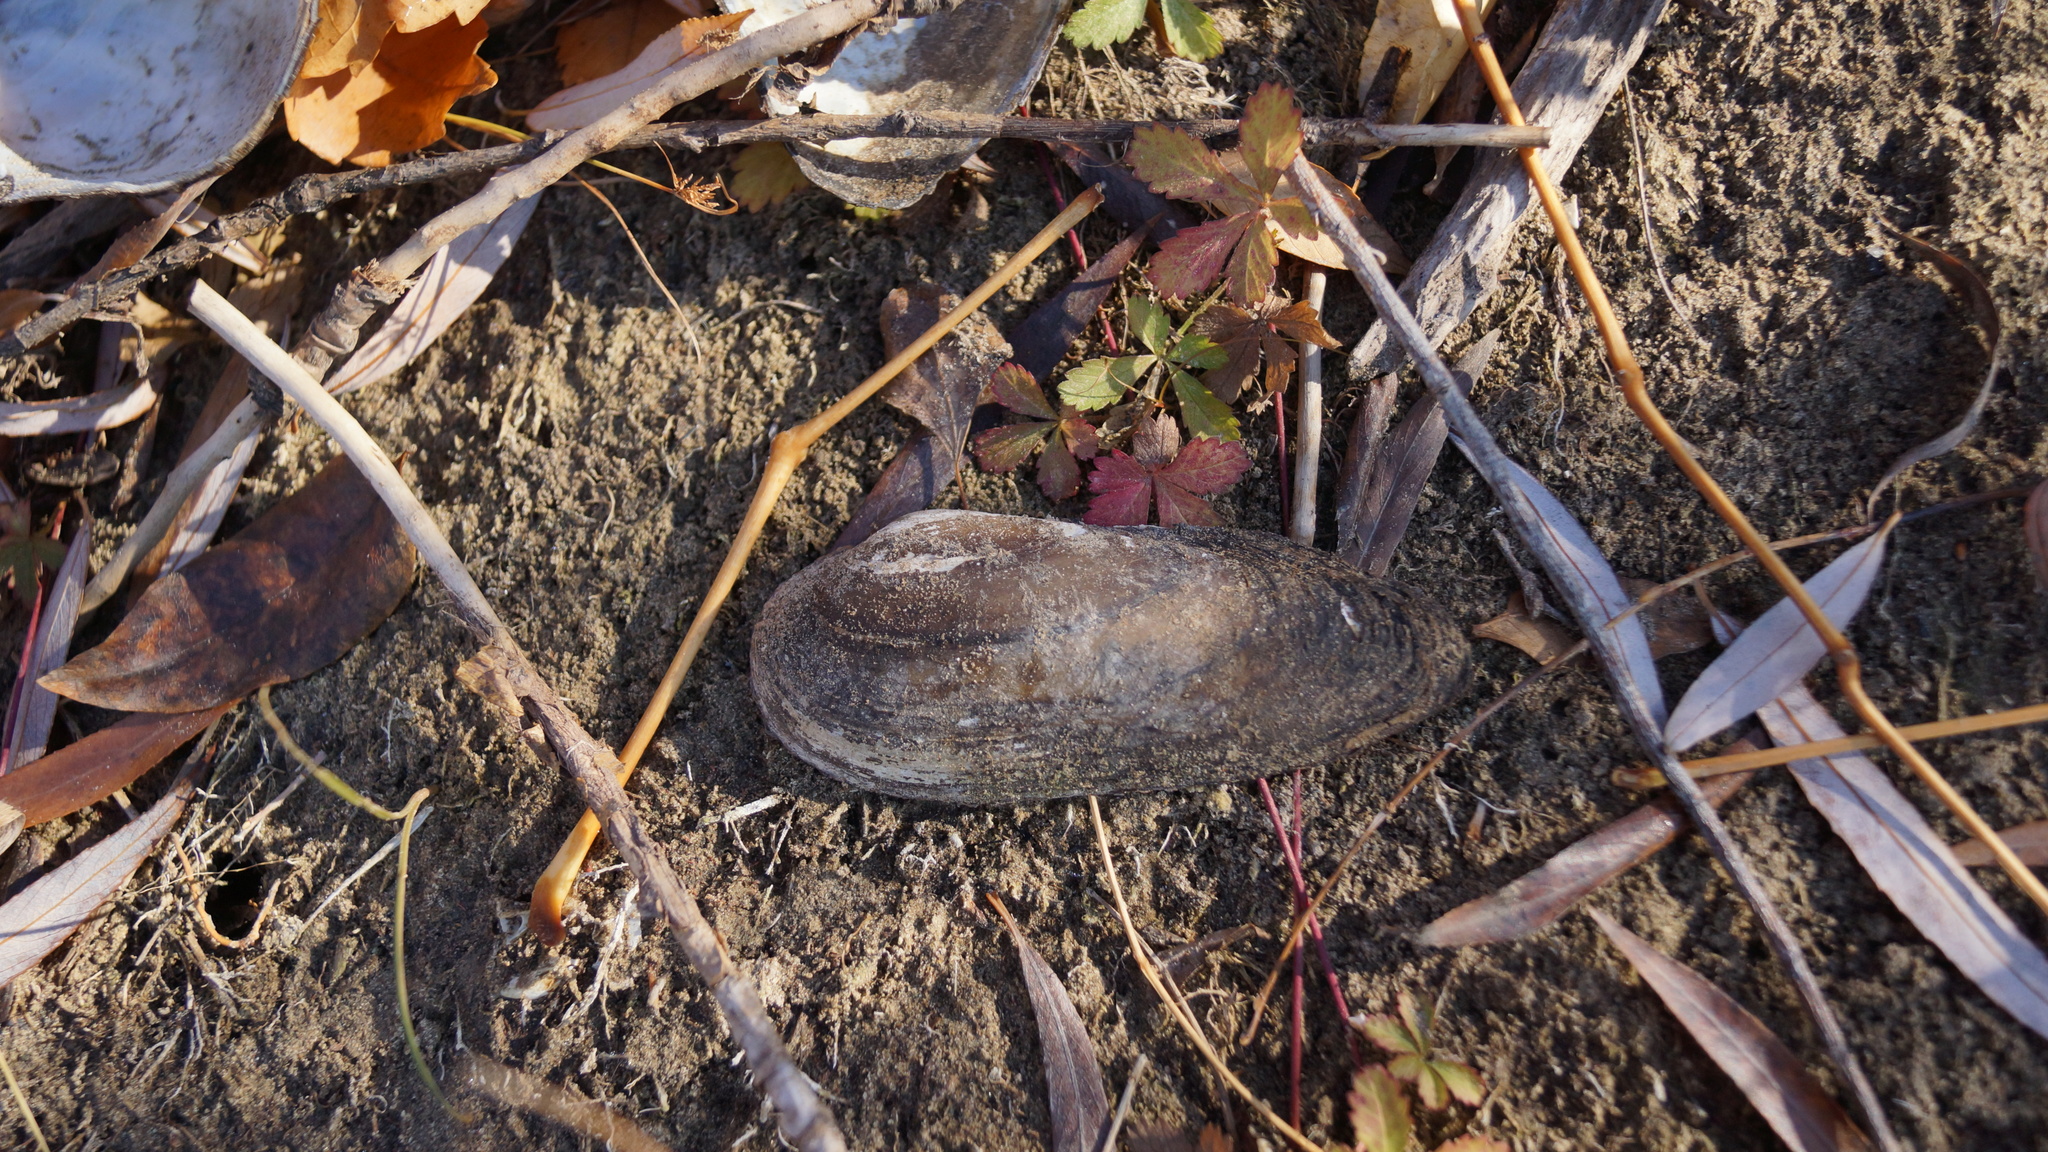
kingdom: Animalia
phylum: Mollusca
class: Bivalvia
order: Unionida
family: Unionidae
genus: Unio
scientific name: Unio pictorum
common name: Painter's mussel
